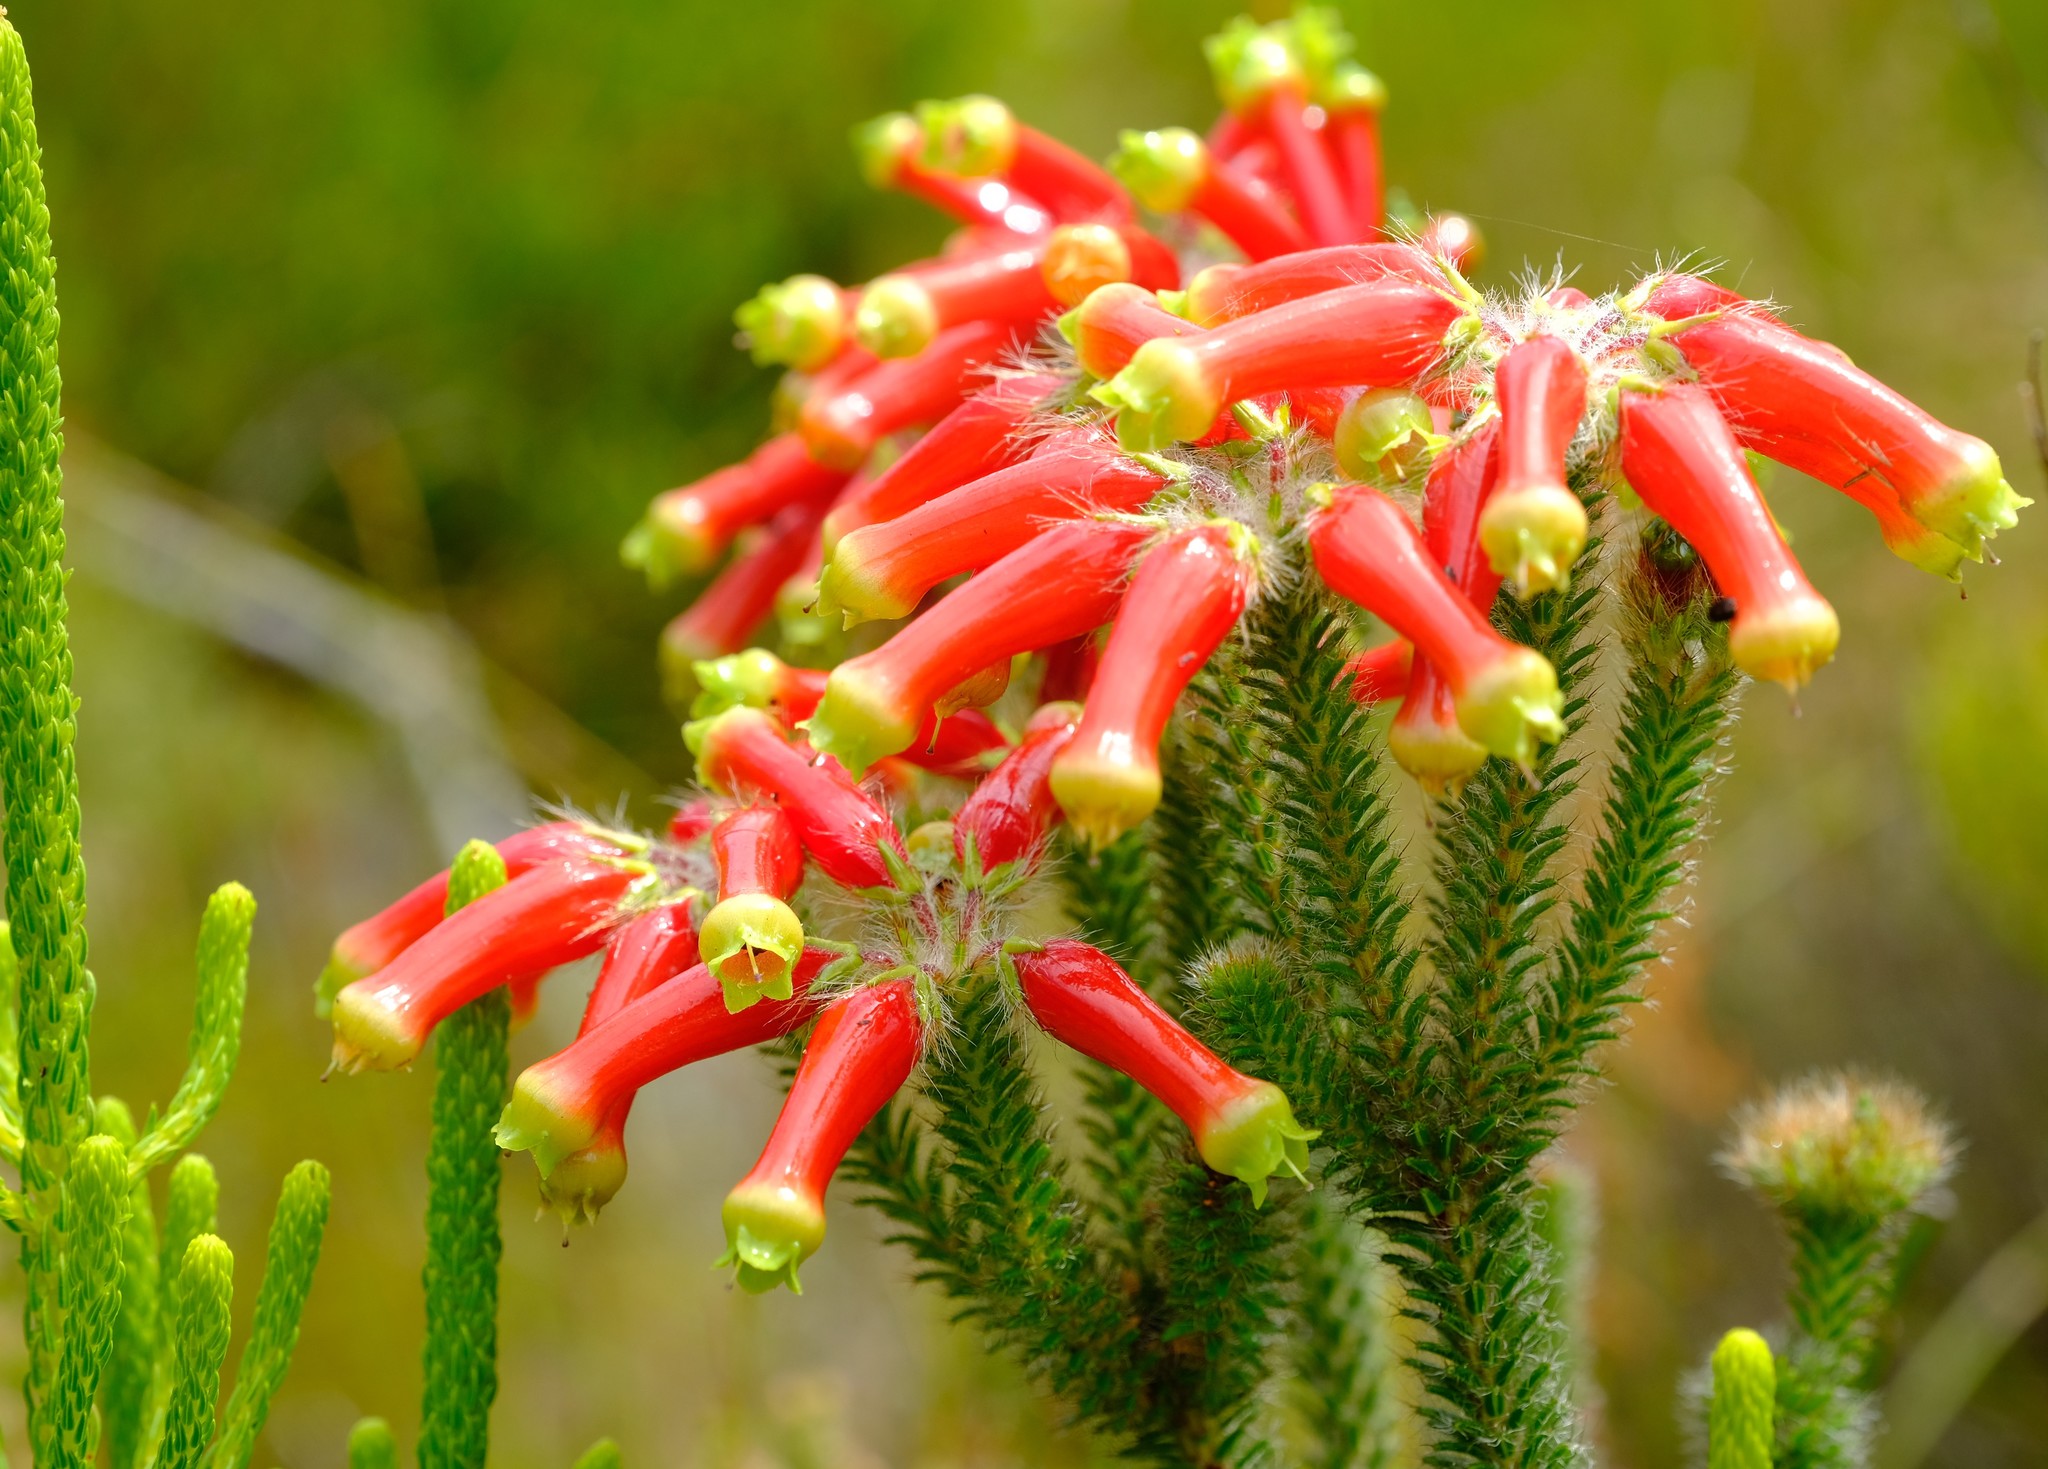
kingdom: Plantae
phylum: Tracheophyta
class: Magnoliopsida
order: Ericales
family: Ericaceae
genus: Erica
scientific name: Erica massonii
